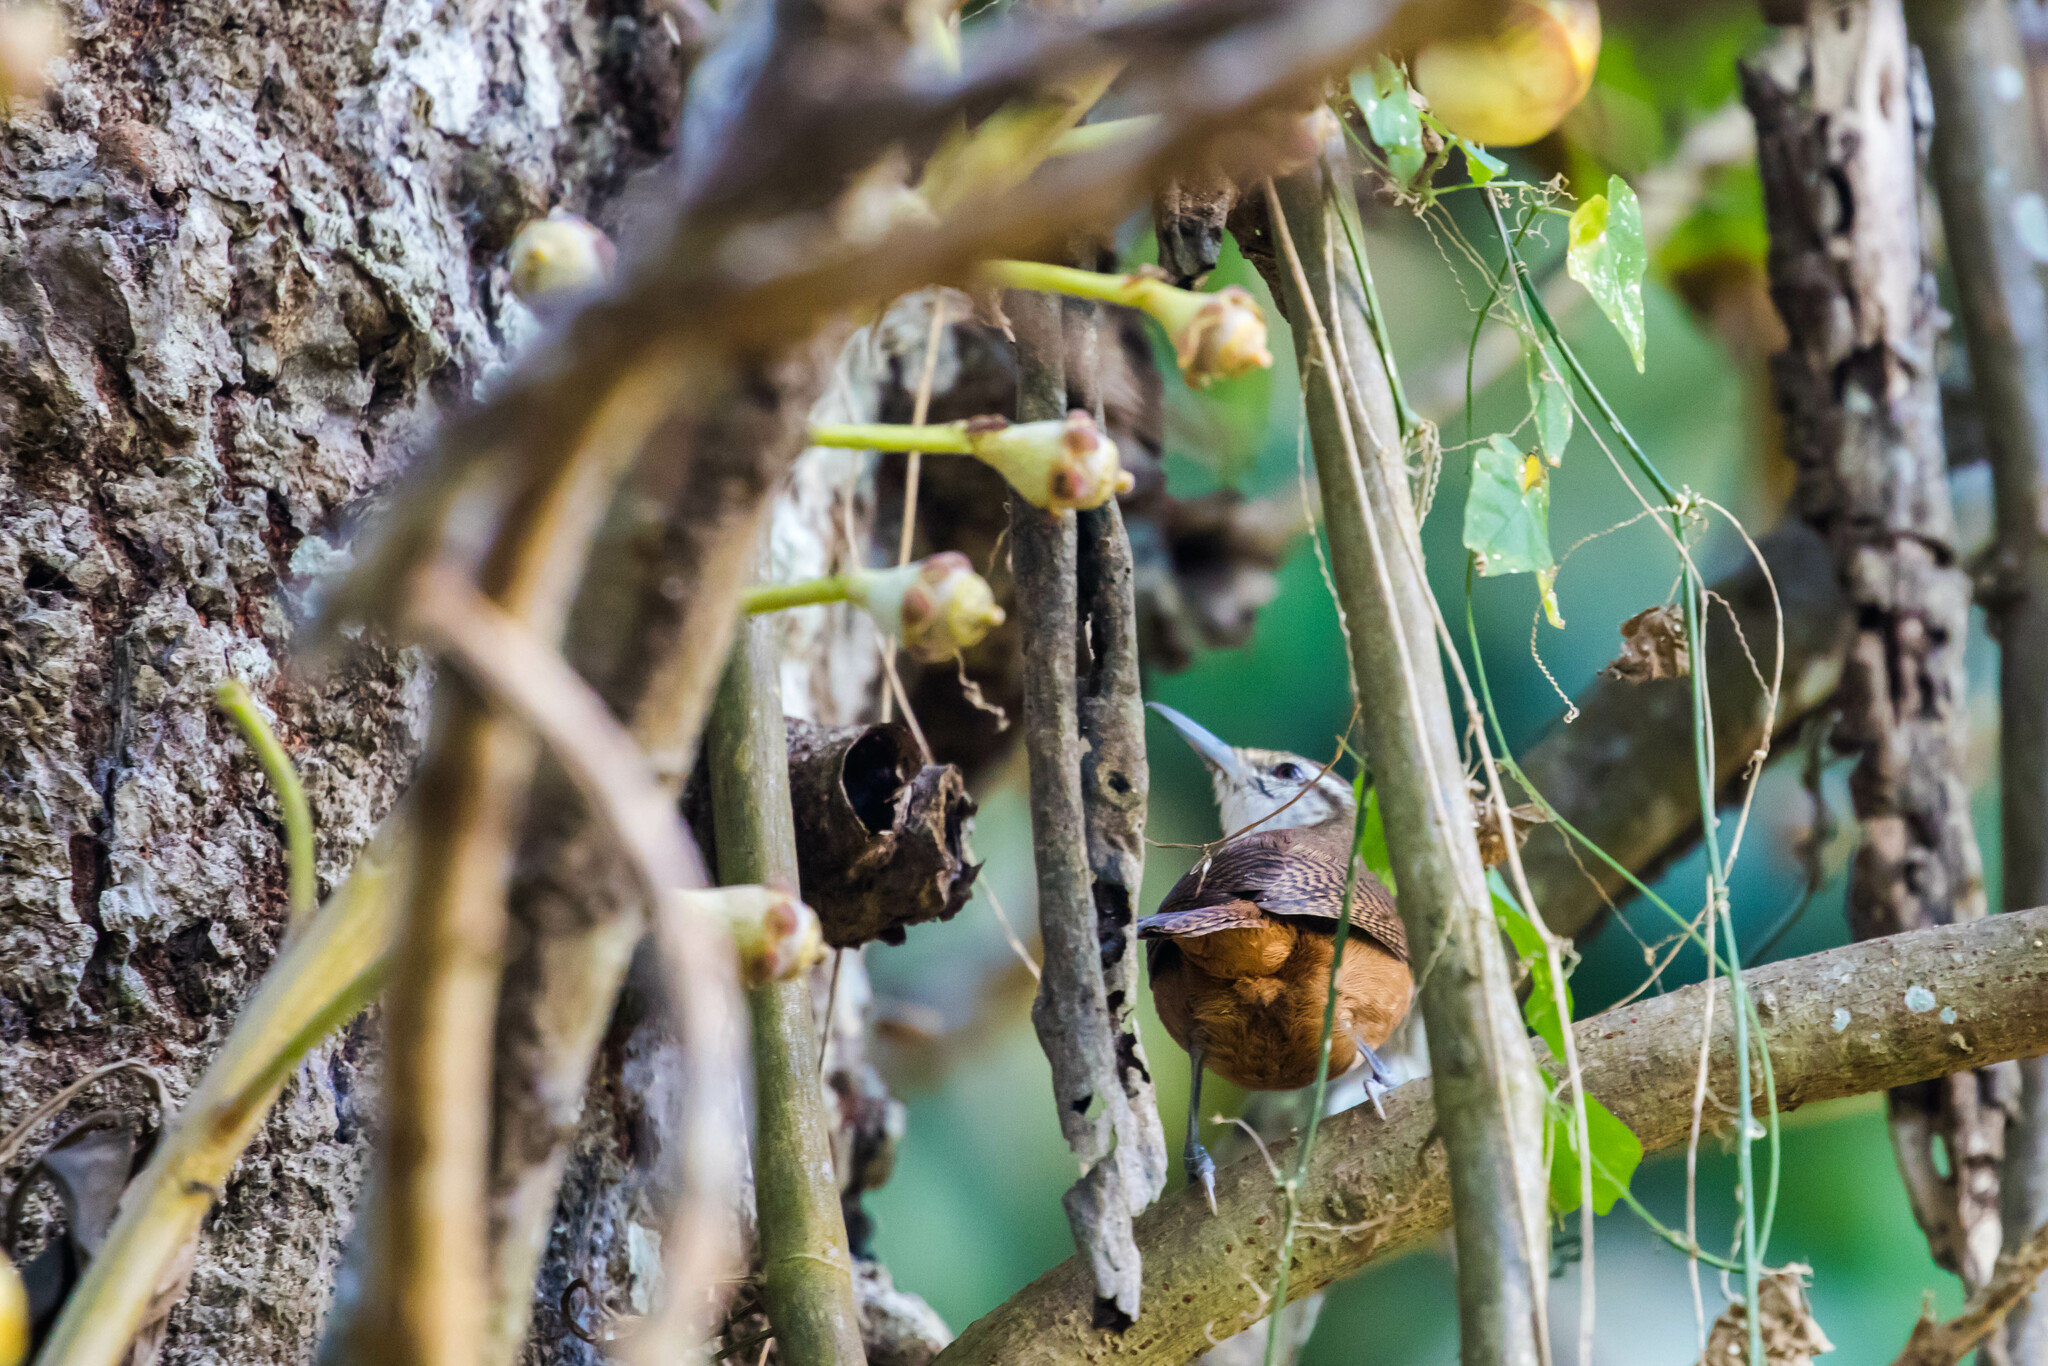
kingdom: Animalia
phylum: Chordata
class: Aves
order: Passeriformes
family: Troglodytidae
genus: Cantorchilus
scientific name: Cantorchilus leucotis
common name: Buff-breasted wren
